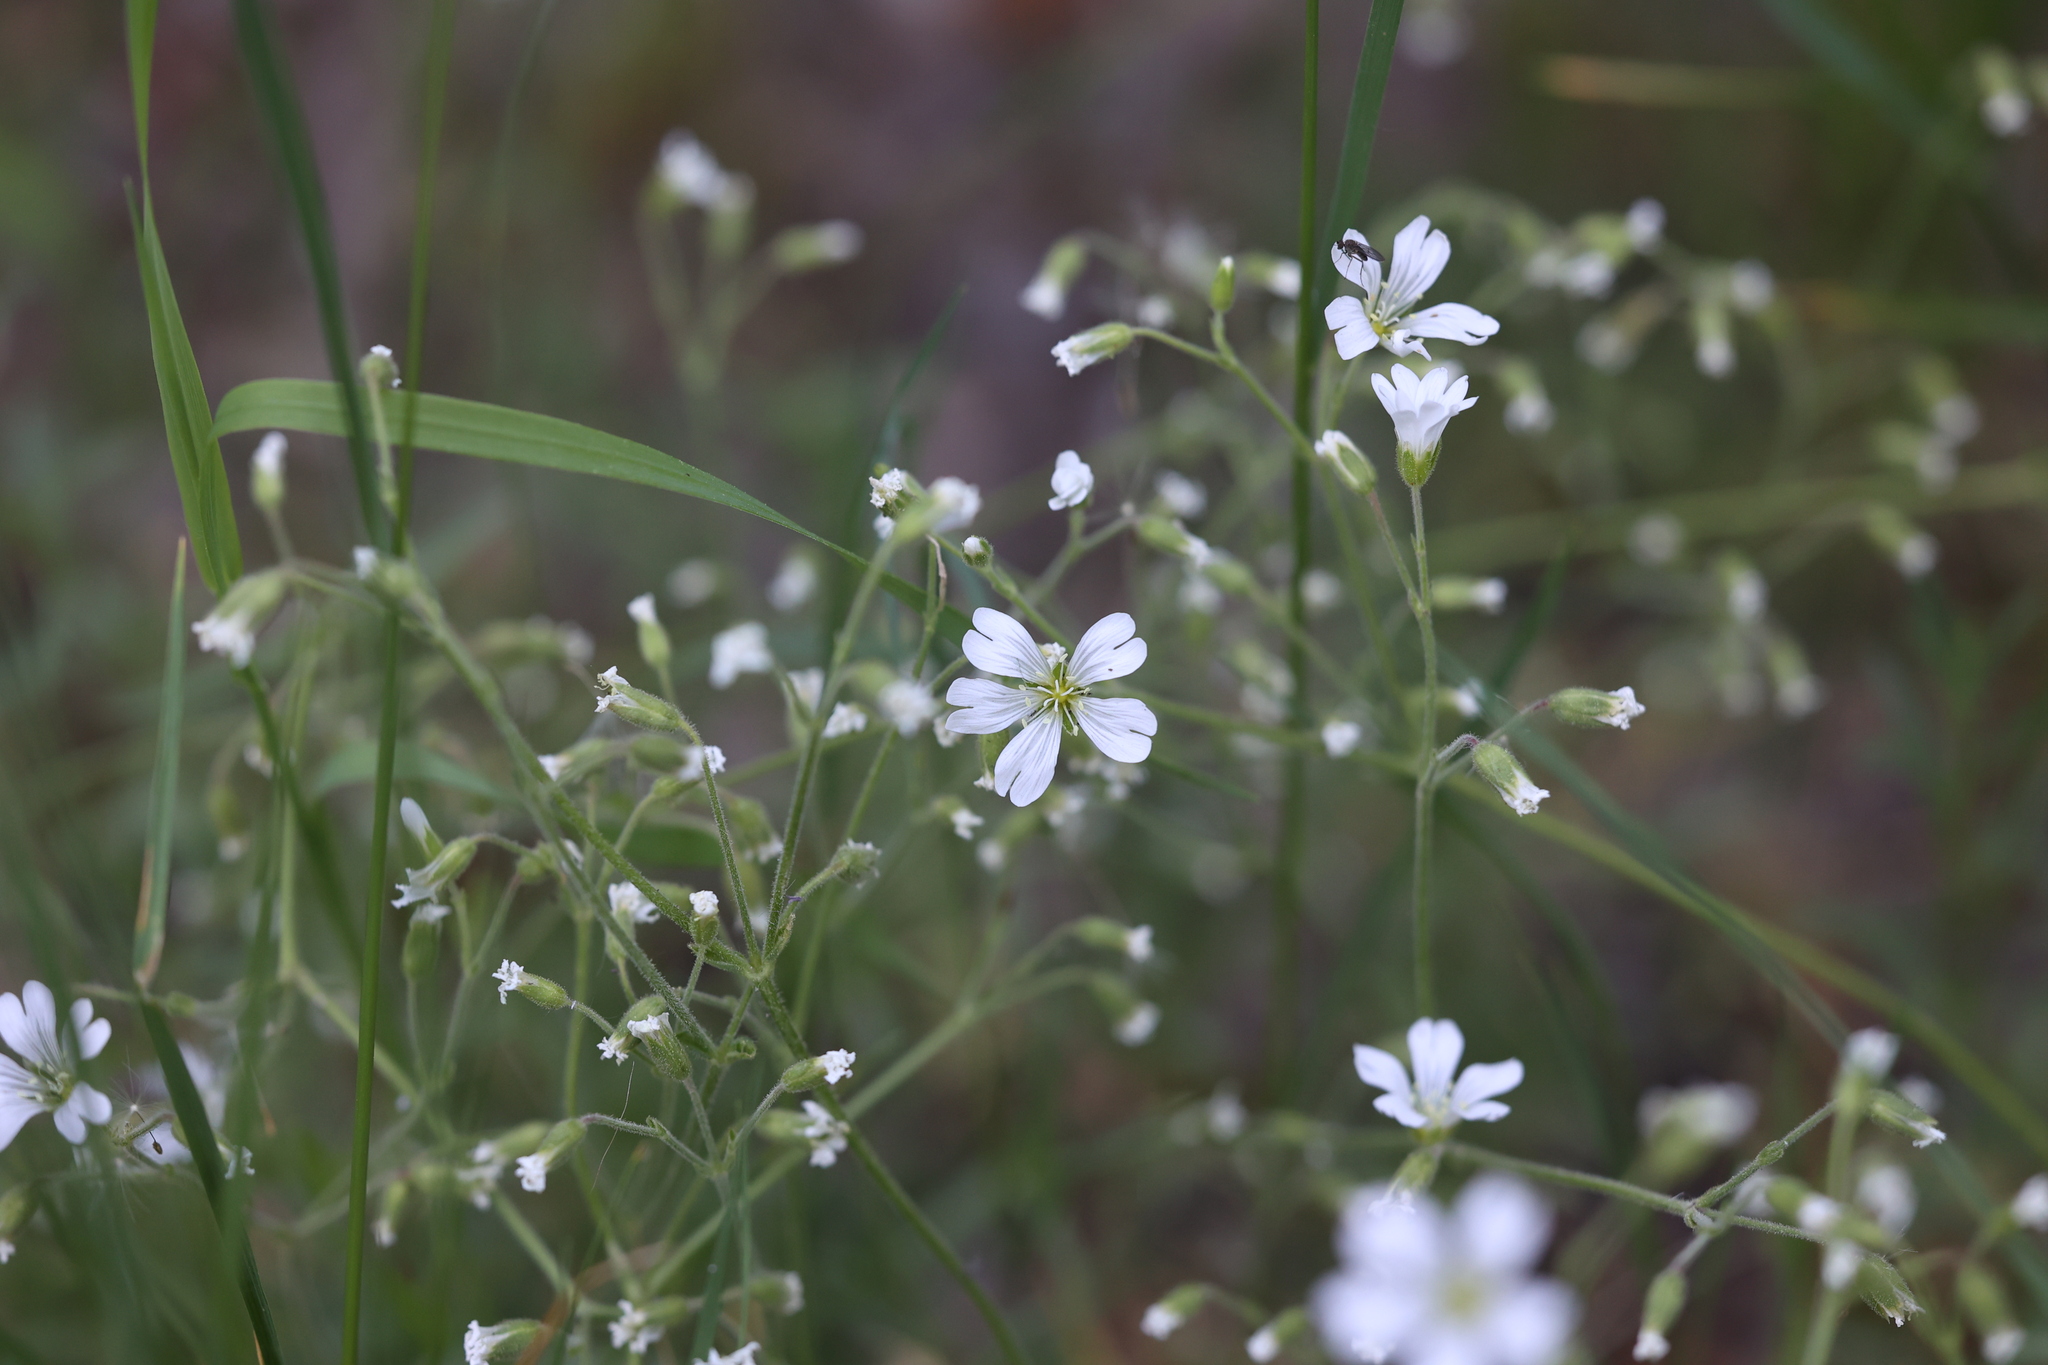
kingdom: Plantae
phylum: Tracheophyta
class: Magnoliopsida
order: Caryophyllales
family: Caryophyllaceae
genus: Cerastium
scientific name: Cerastium arvense
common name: Field mouse-ear
